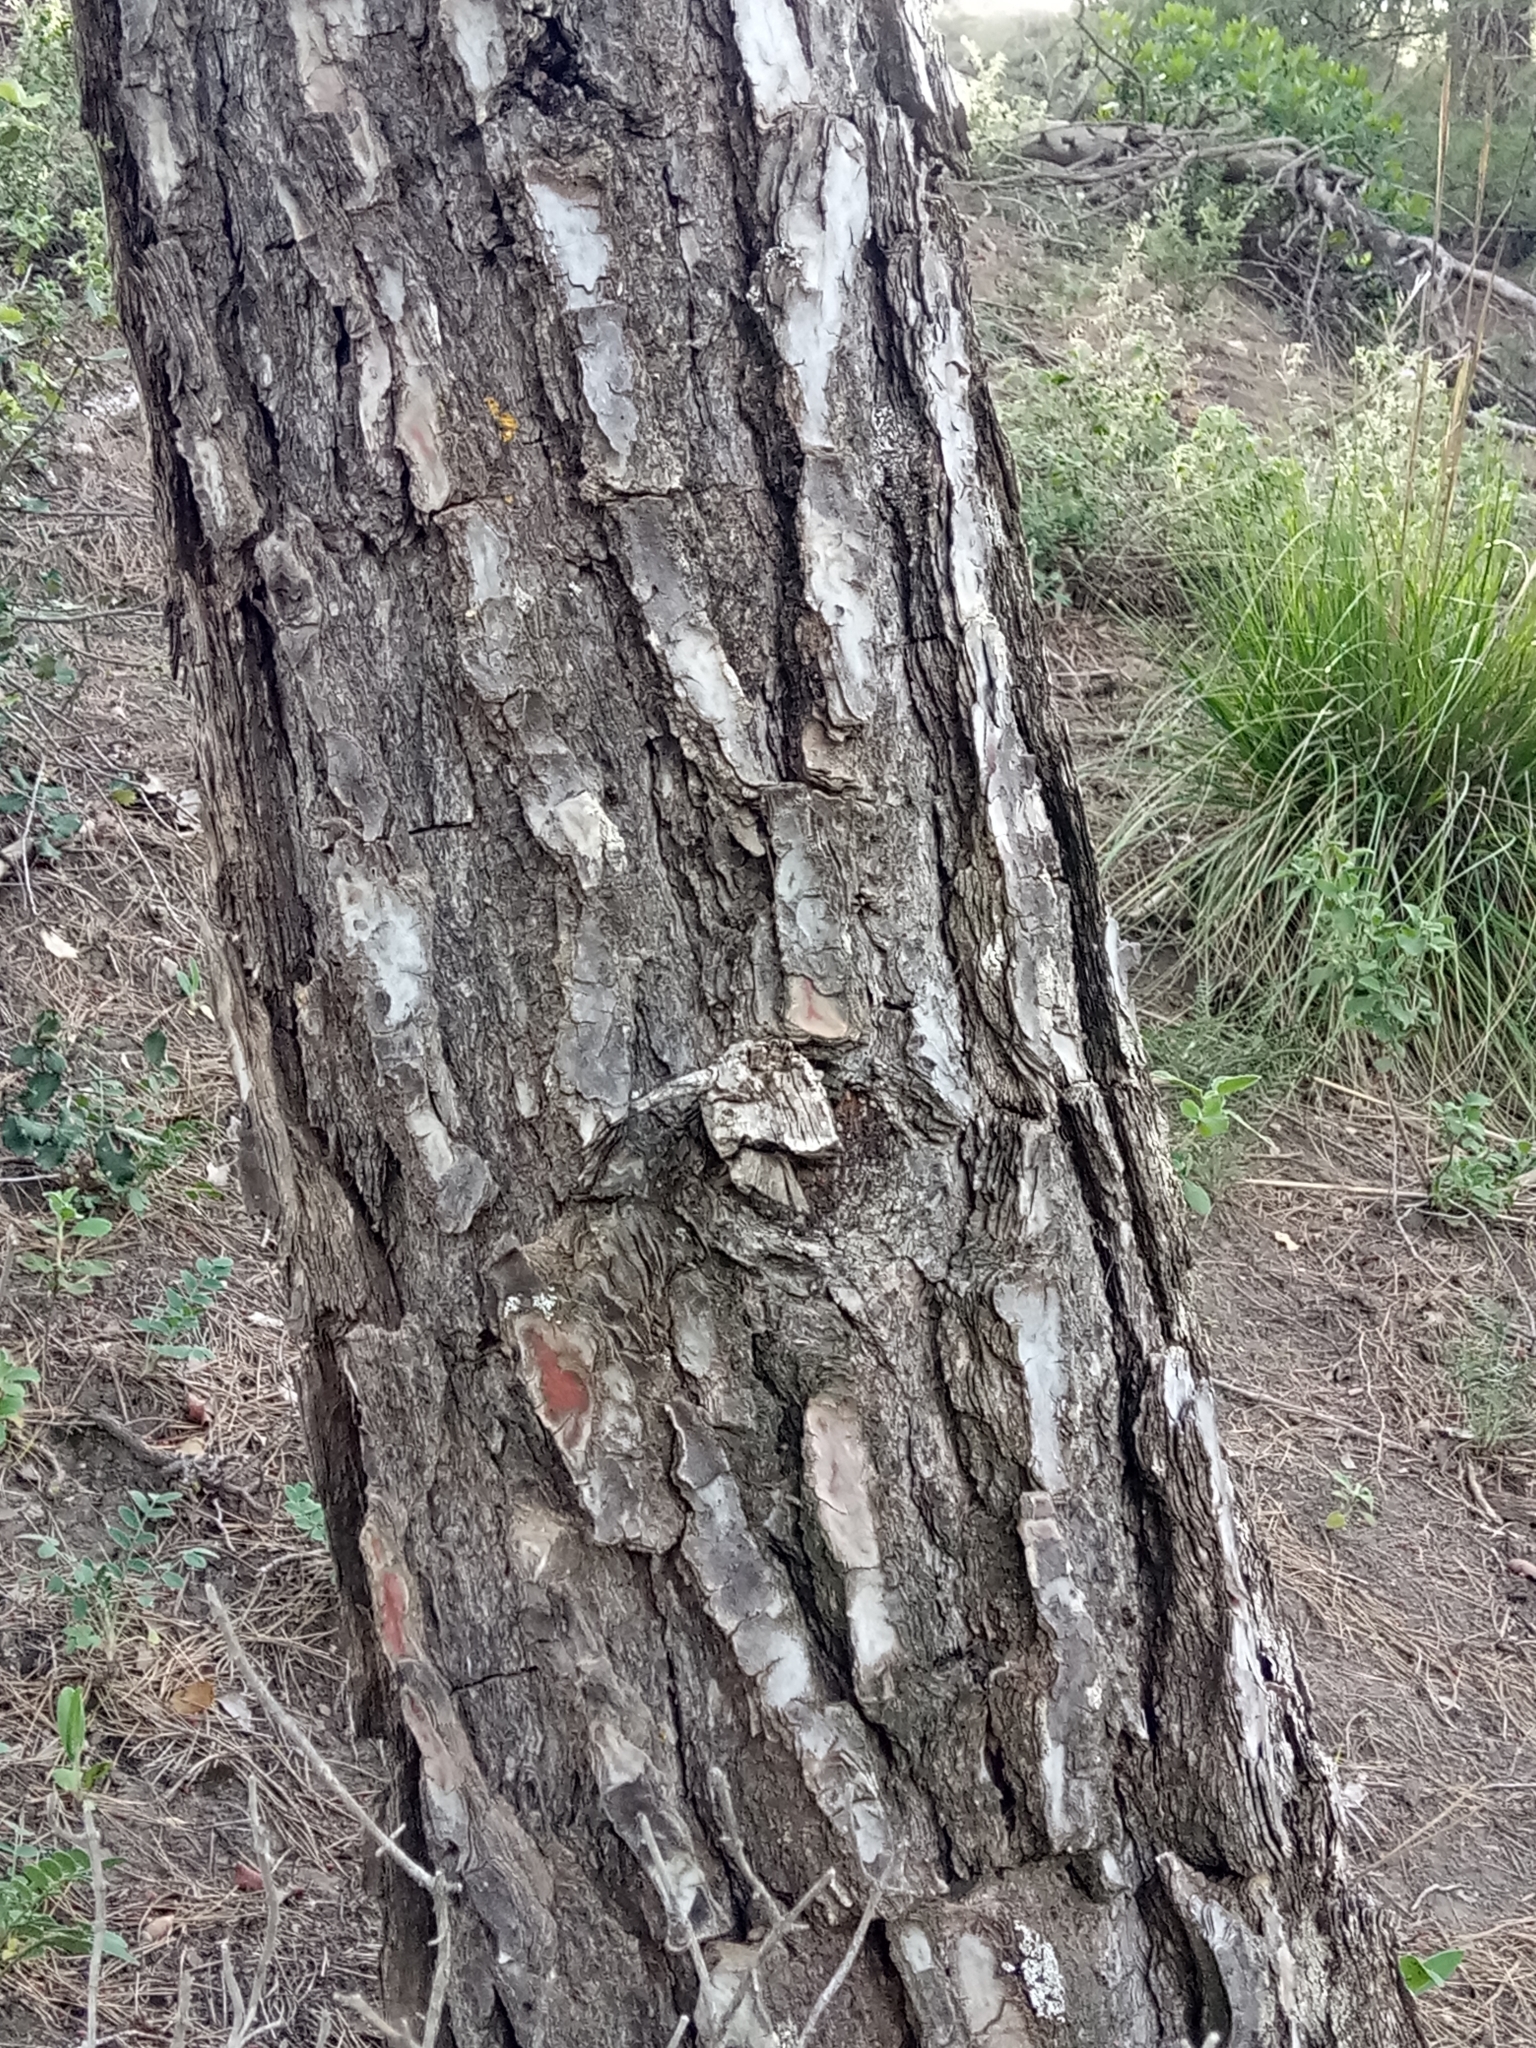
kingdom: Plantae
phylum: Tracheophyta
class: Pinopsida
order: Pinales
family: Pinaceae
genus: Pinus
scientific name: Pinus halepensis
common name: Aleppo pine
